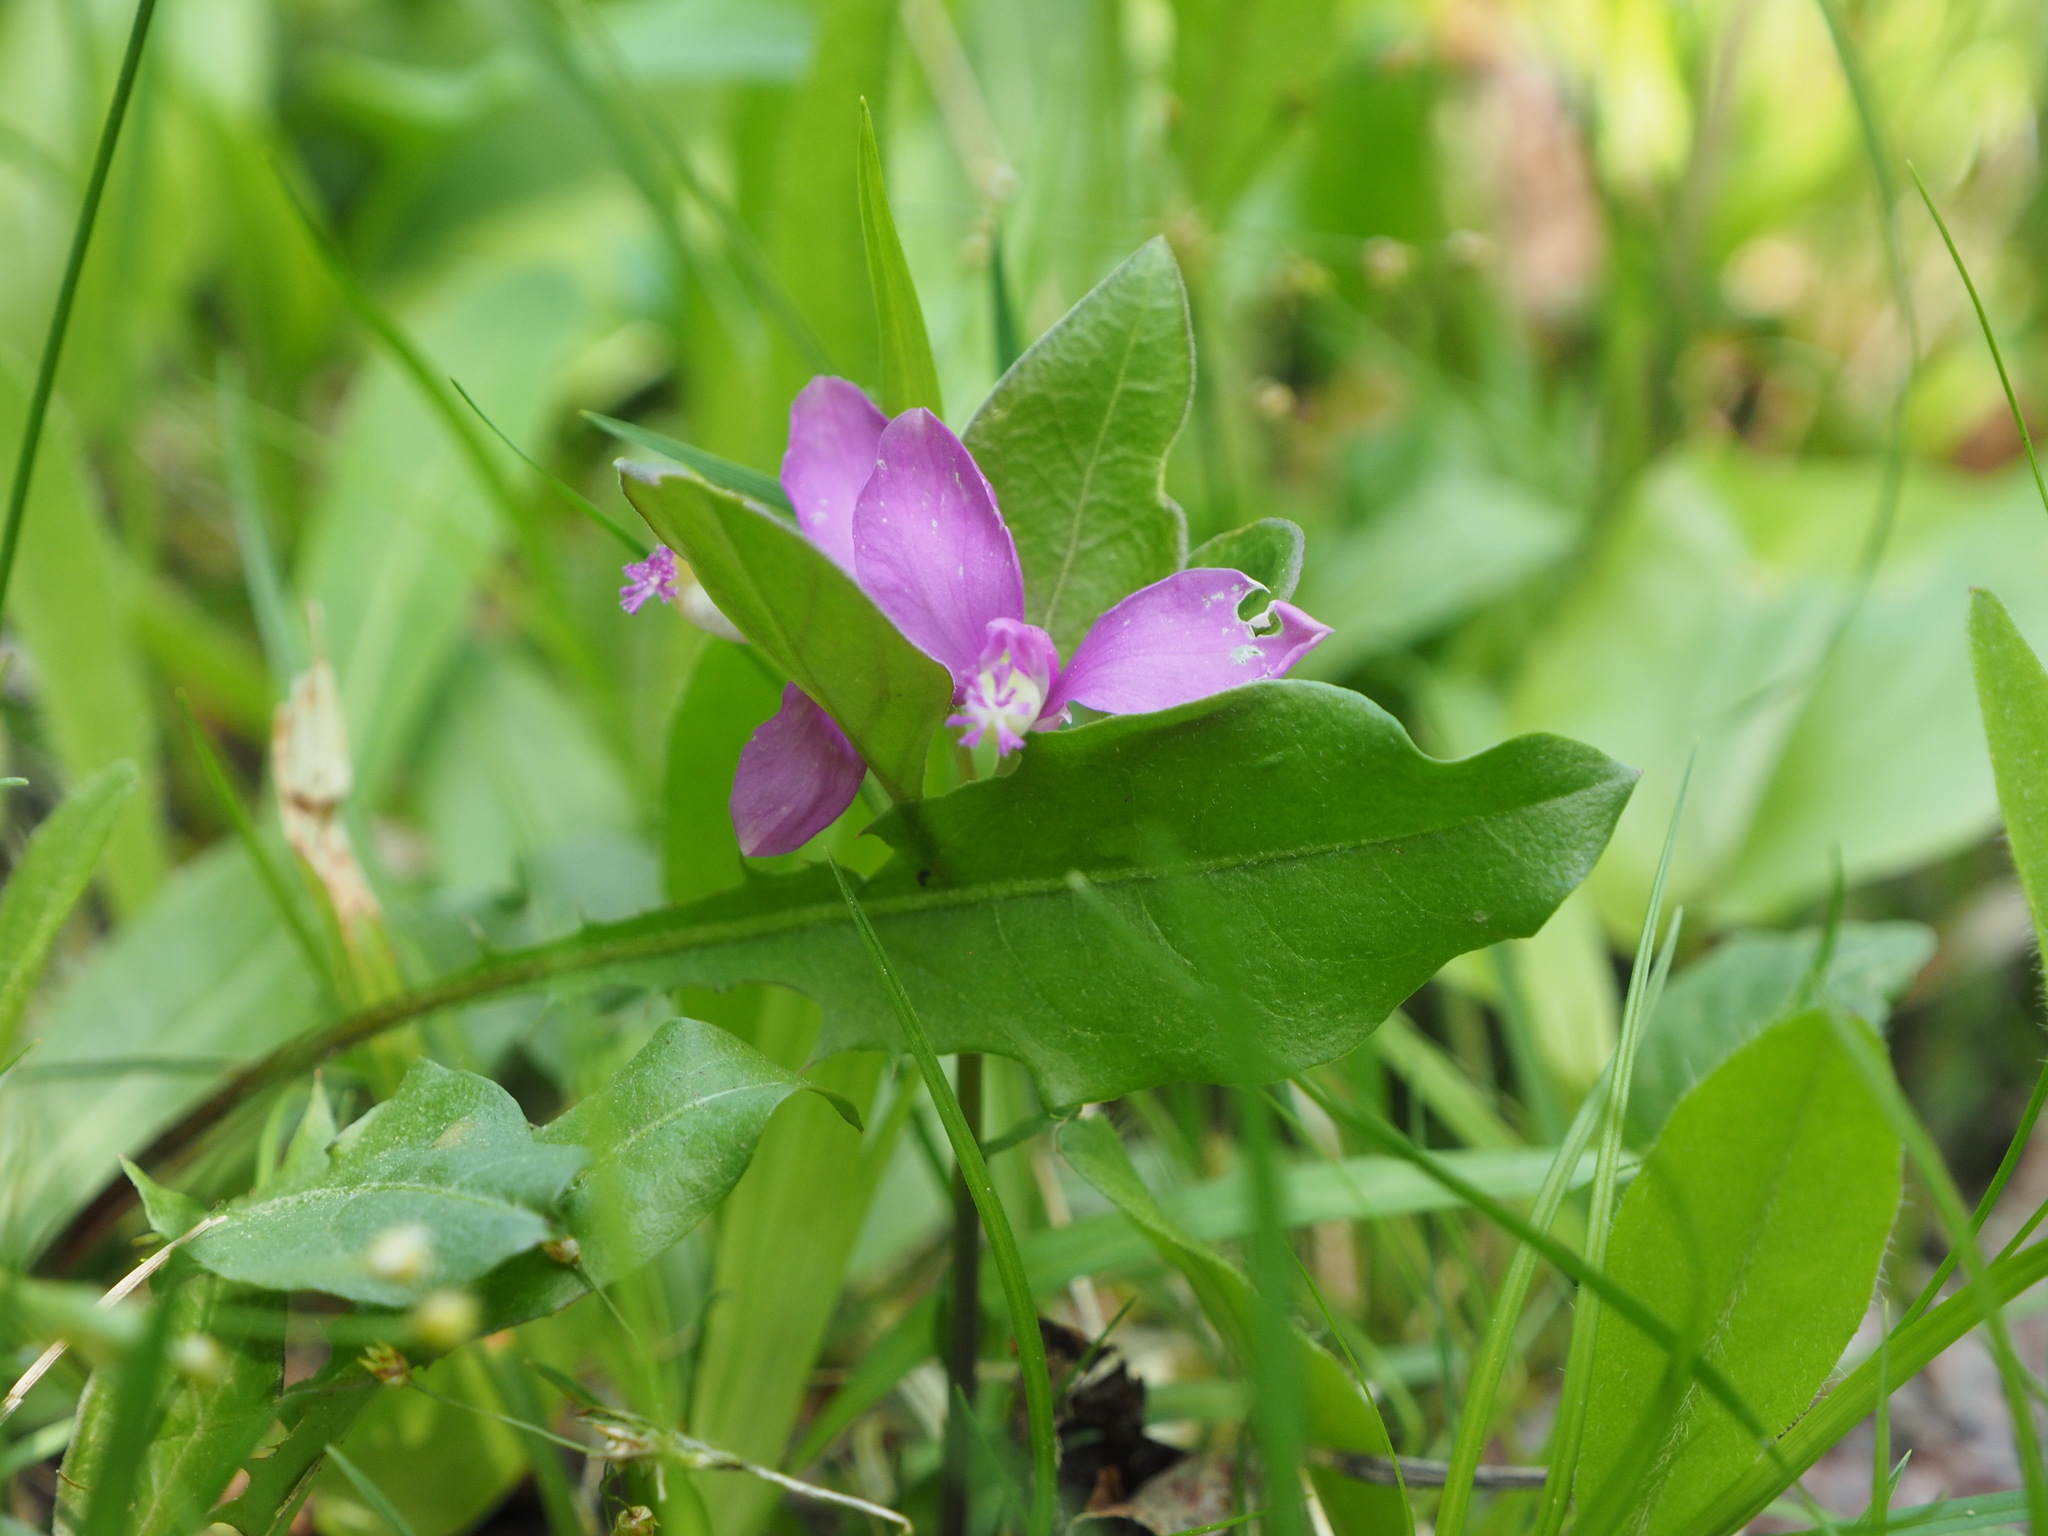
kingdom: Plantae
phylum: Tracheophyta
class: Magnoliopsida
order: Fabales
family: Polygalaceae
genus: Polygaloides
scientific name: Polygaloides paucifolia
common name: Bird-on-the-wing
